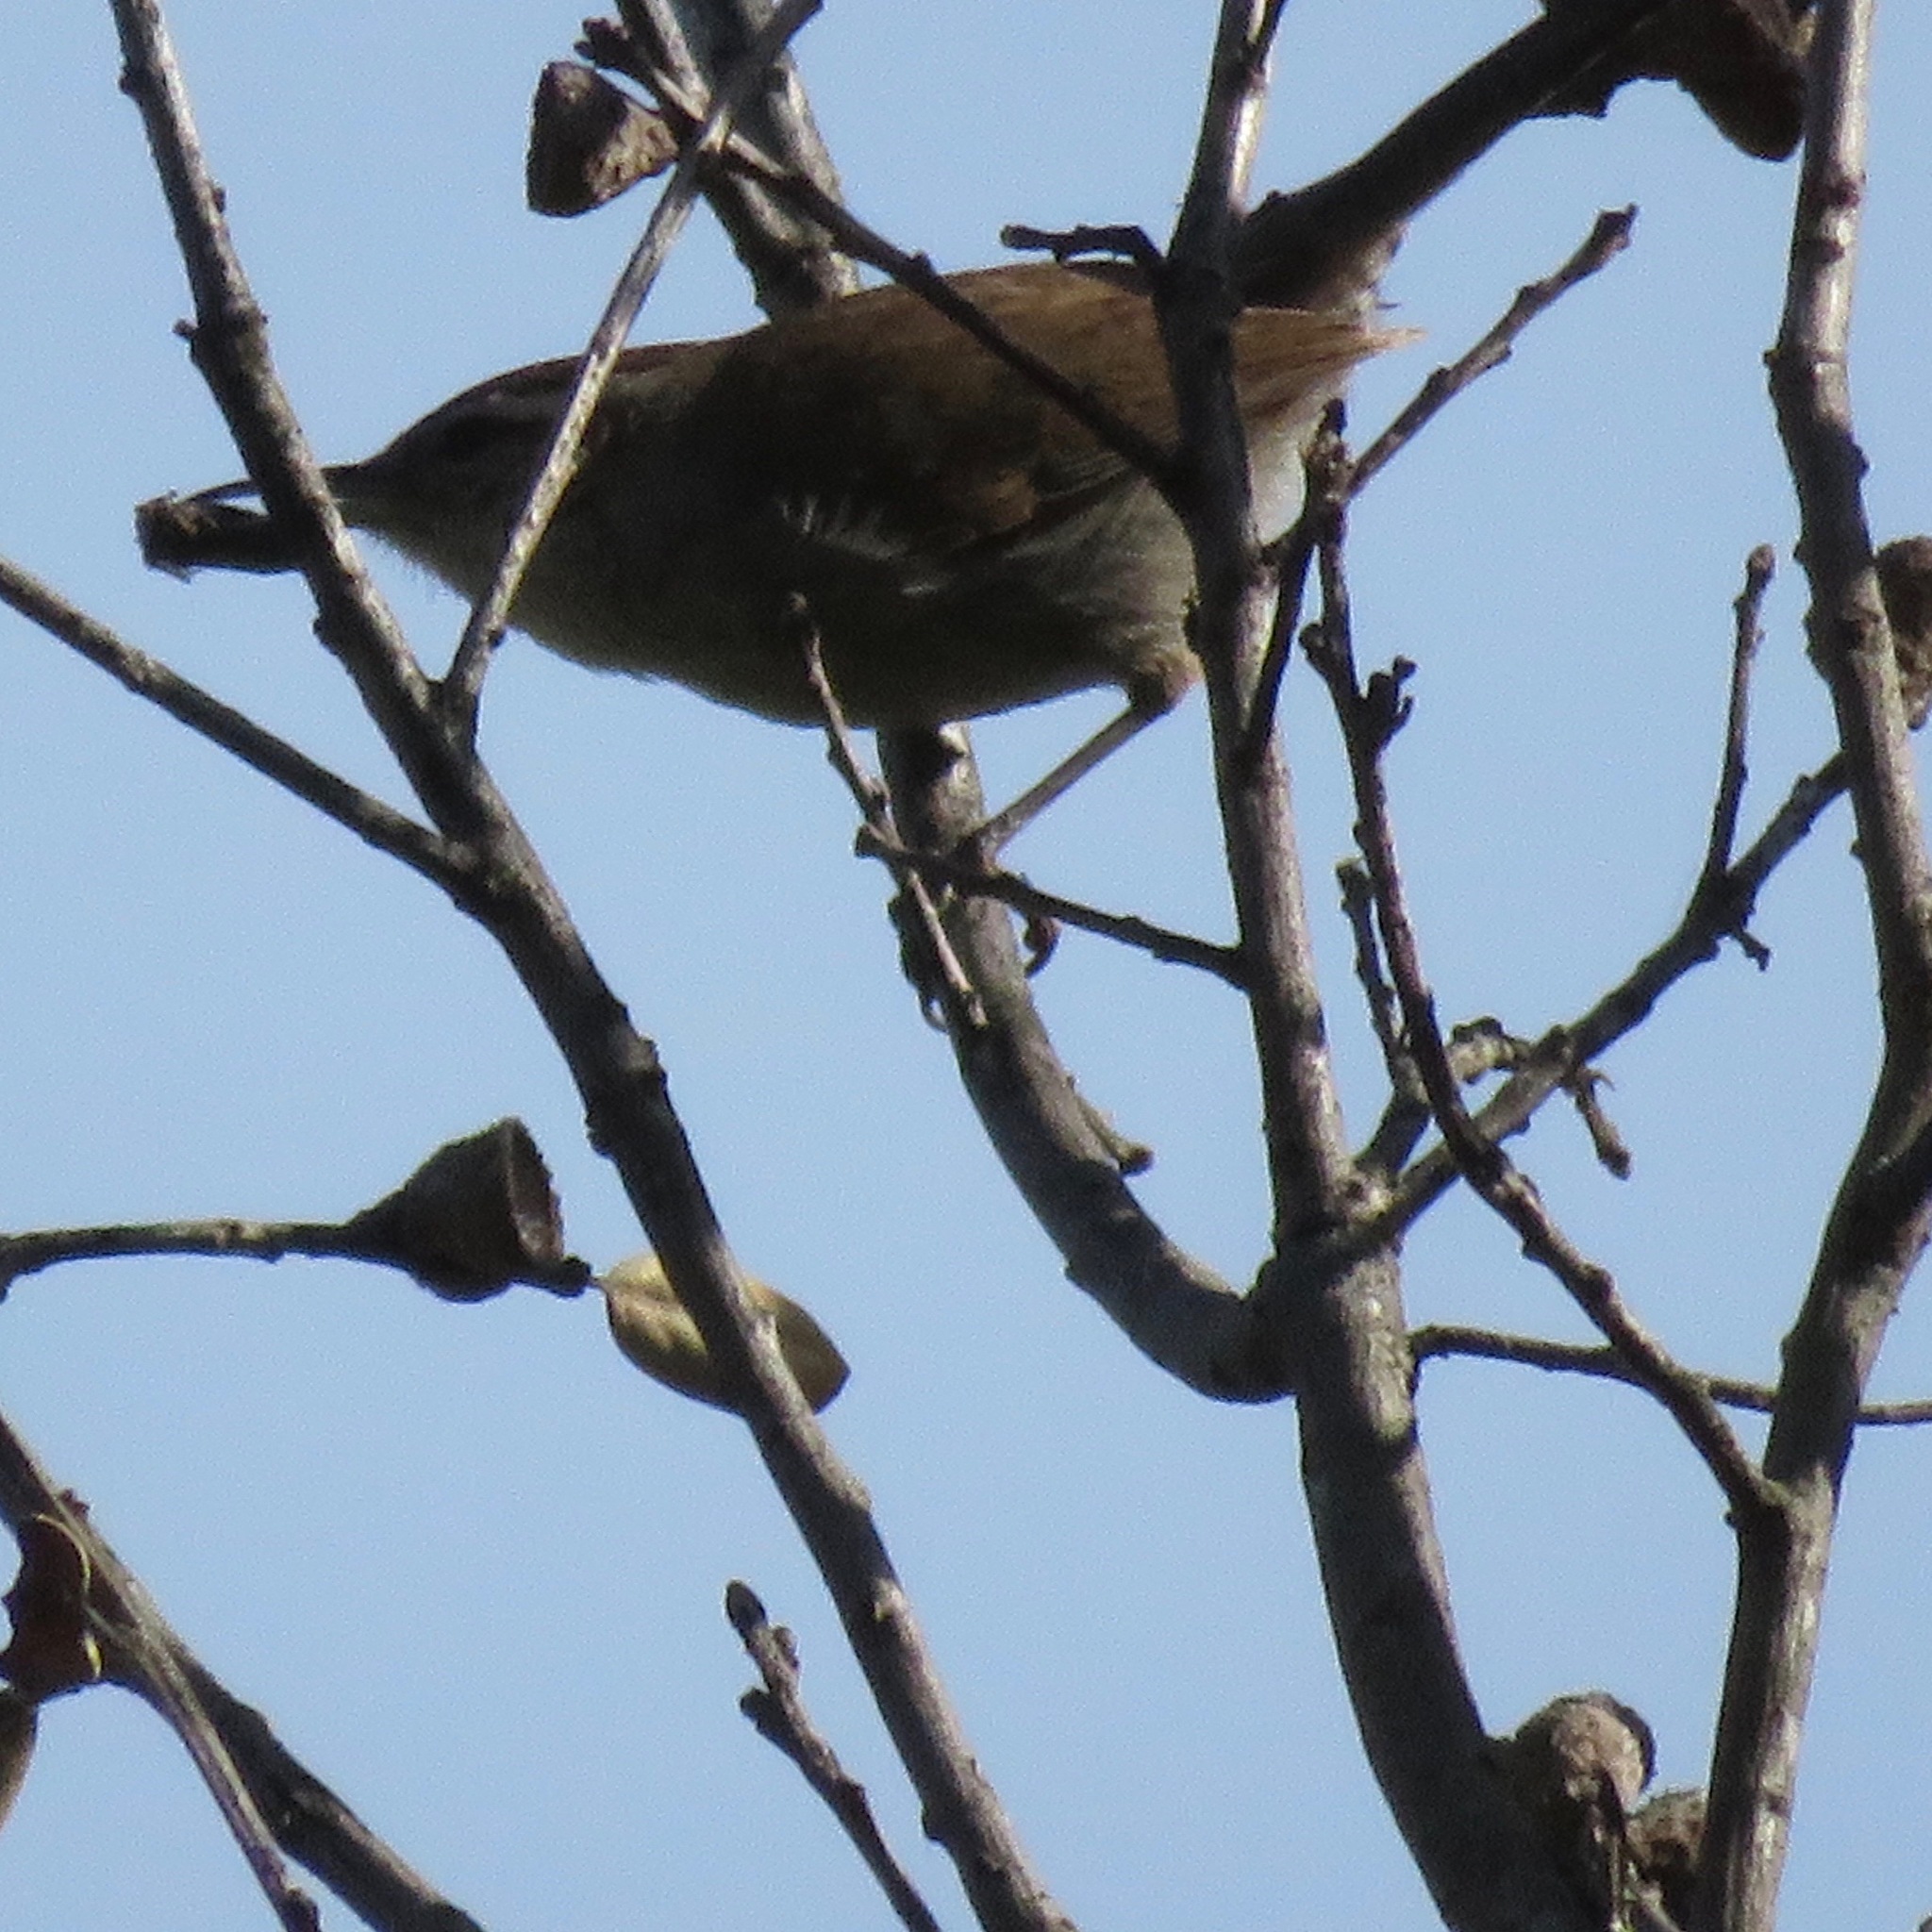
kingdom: Animalia
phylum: Chordata
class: Aves
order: Passeriformes
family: Troglodytidae
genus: Thryomanes
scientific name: Thryomanes bewickii
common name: Bewick's wren
